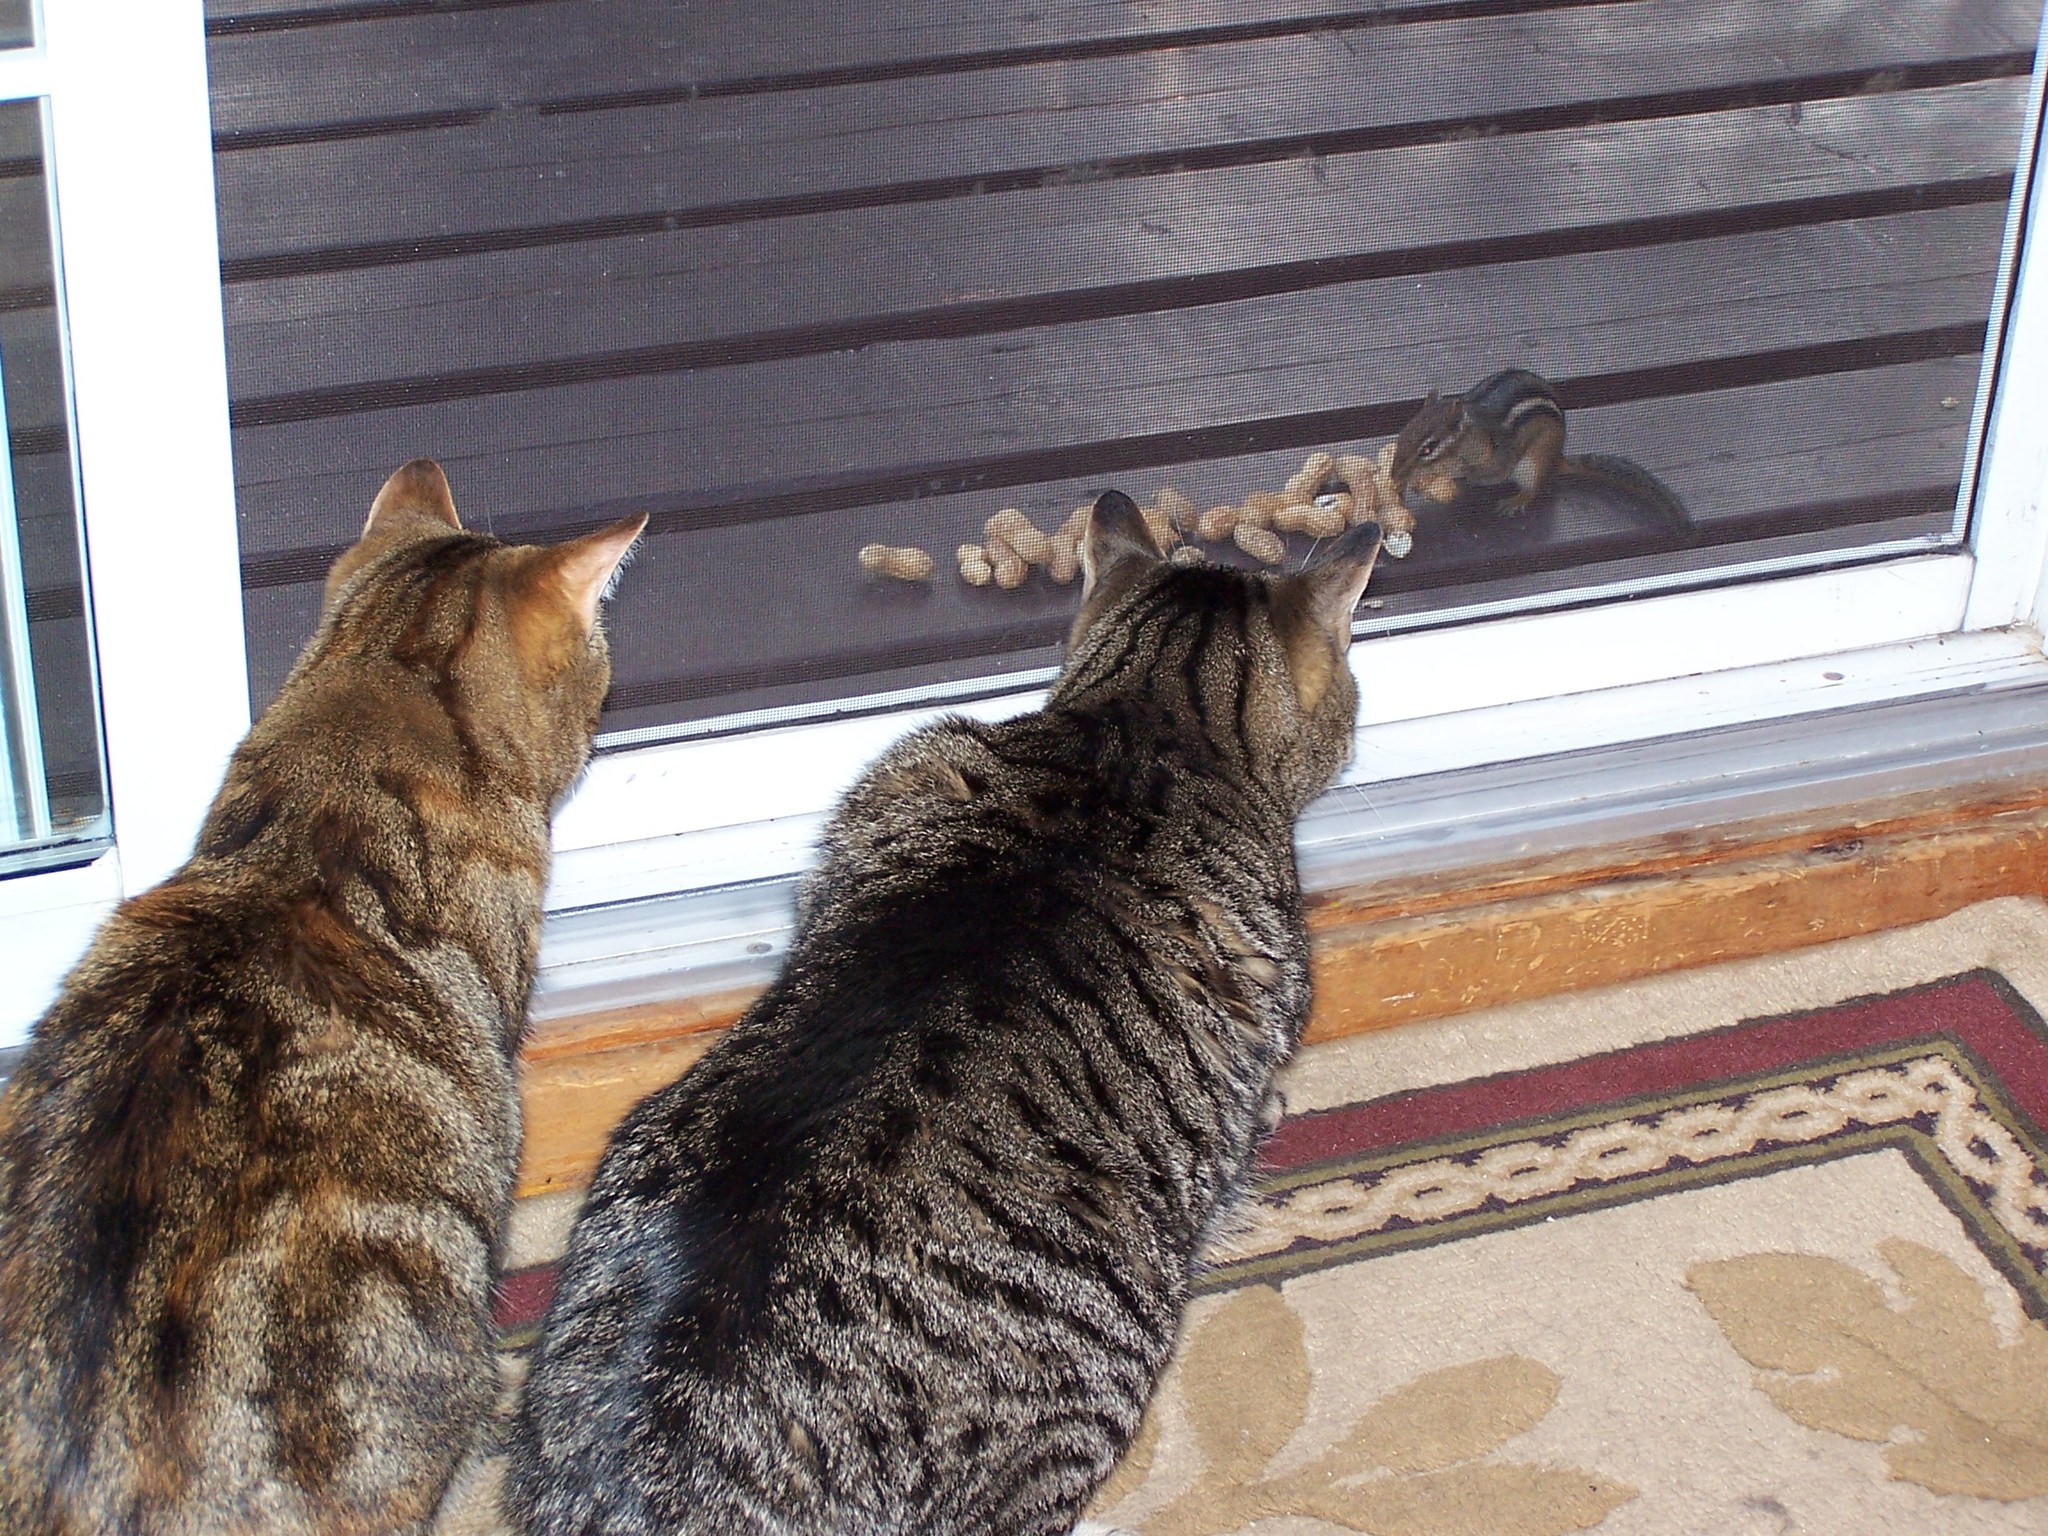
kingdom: Animalia
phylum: Chordata
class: Mammalia
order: Rodentia
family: Sciuridae
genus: Tamias
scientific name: Tamias striatus
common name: Eastern chipmunk
